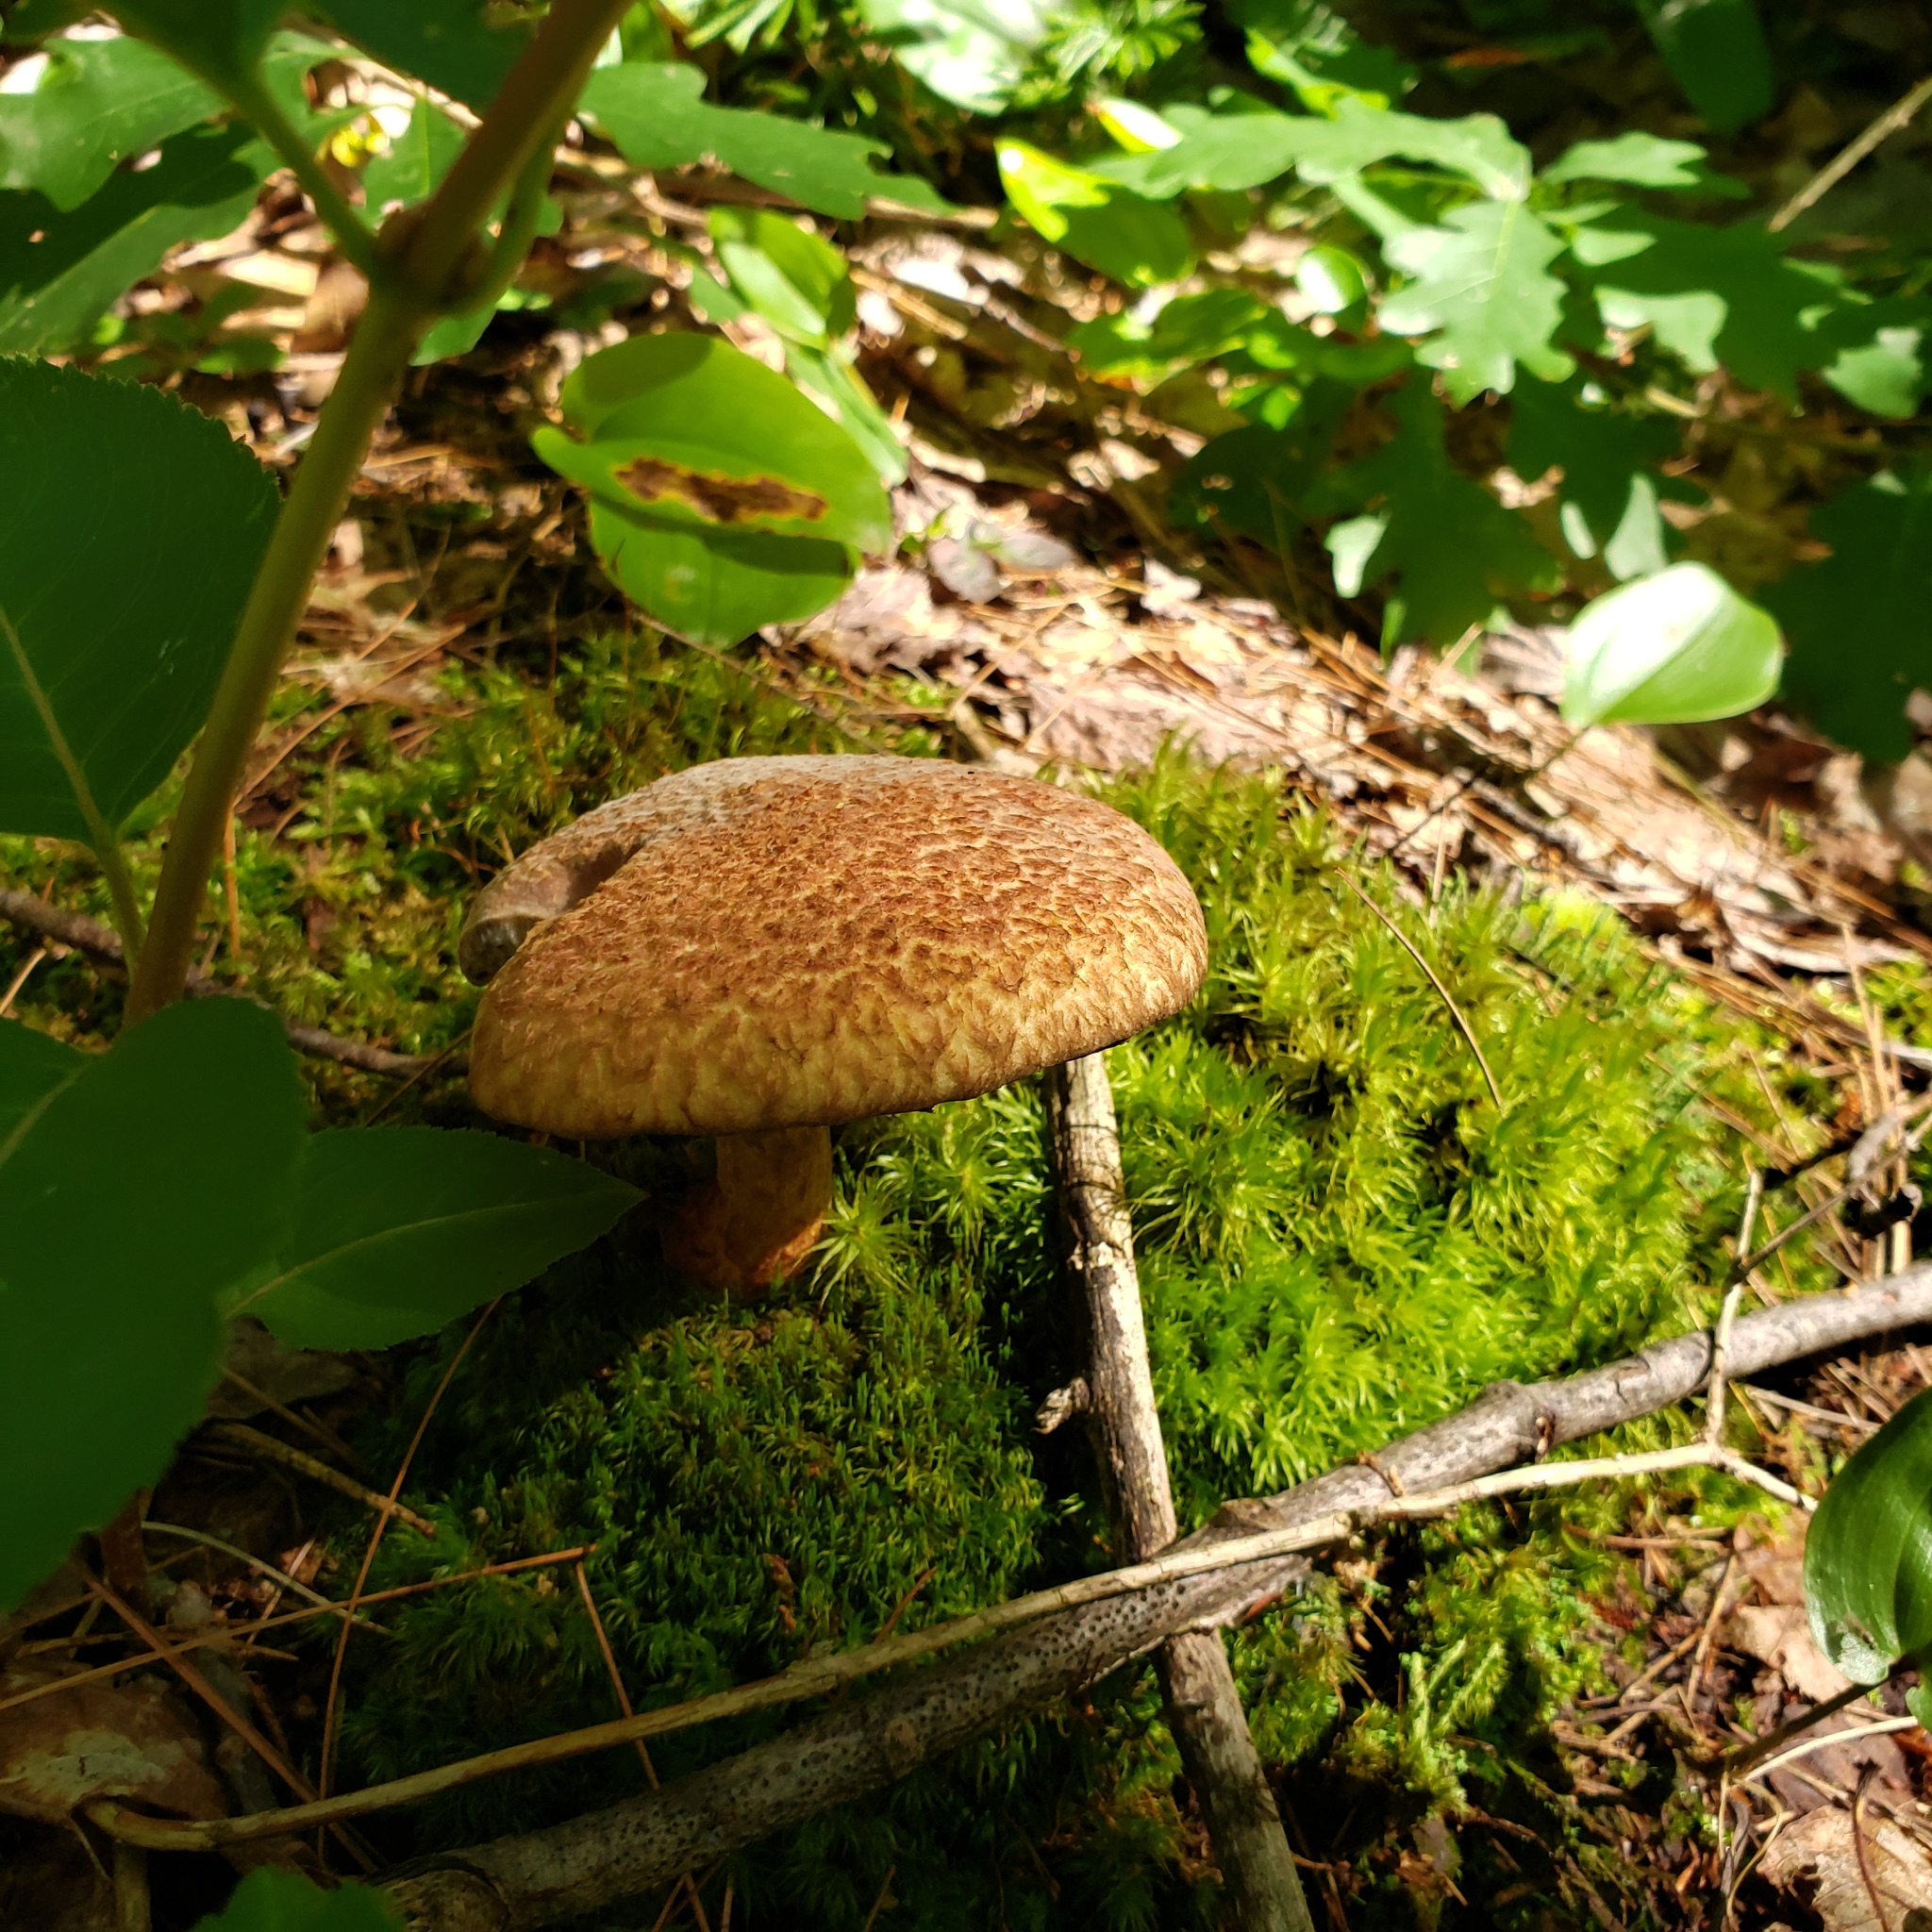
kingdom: Fungi
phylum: Basidiomycota
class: Agaricomycetes
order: Boletales
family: Suillaceae
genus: Suillus
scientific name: Suillus spraguei
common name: Painted suillus
